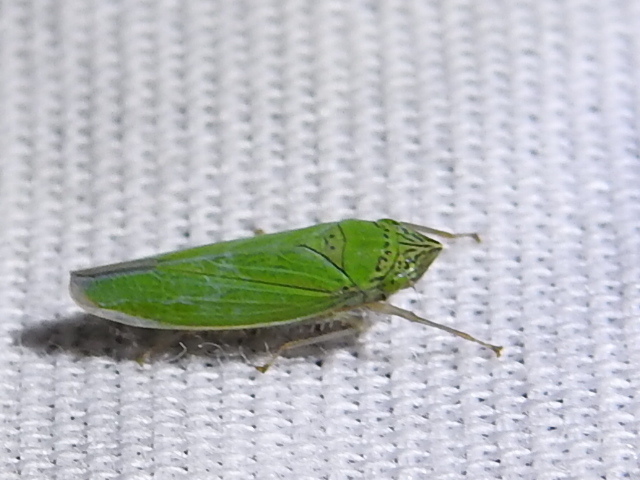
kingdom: Animalia
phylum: Arthropoda
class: Insecta
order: Hemiptera
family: Cicadellidae
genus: Draeculacephala
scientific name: Draeculacephala inscripta
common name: Leafhopper
